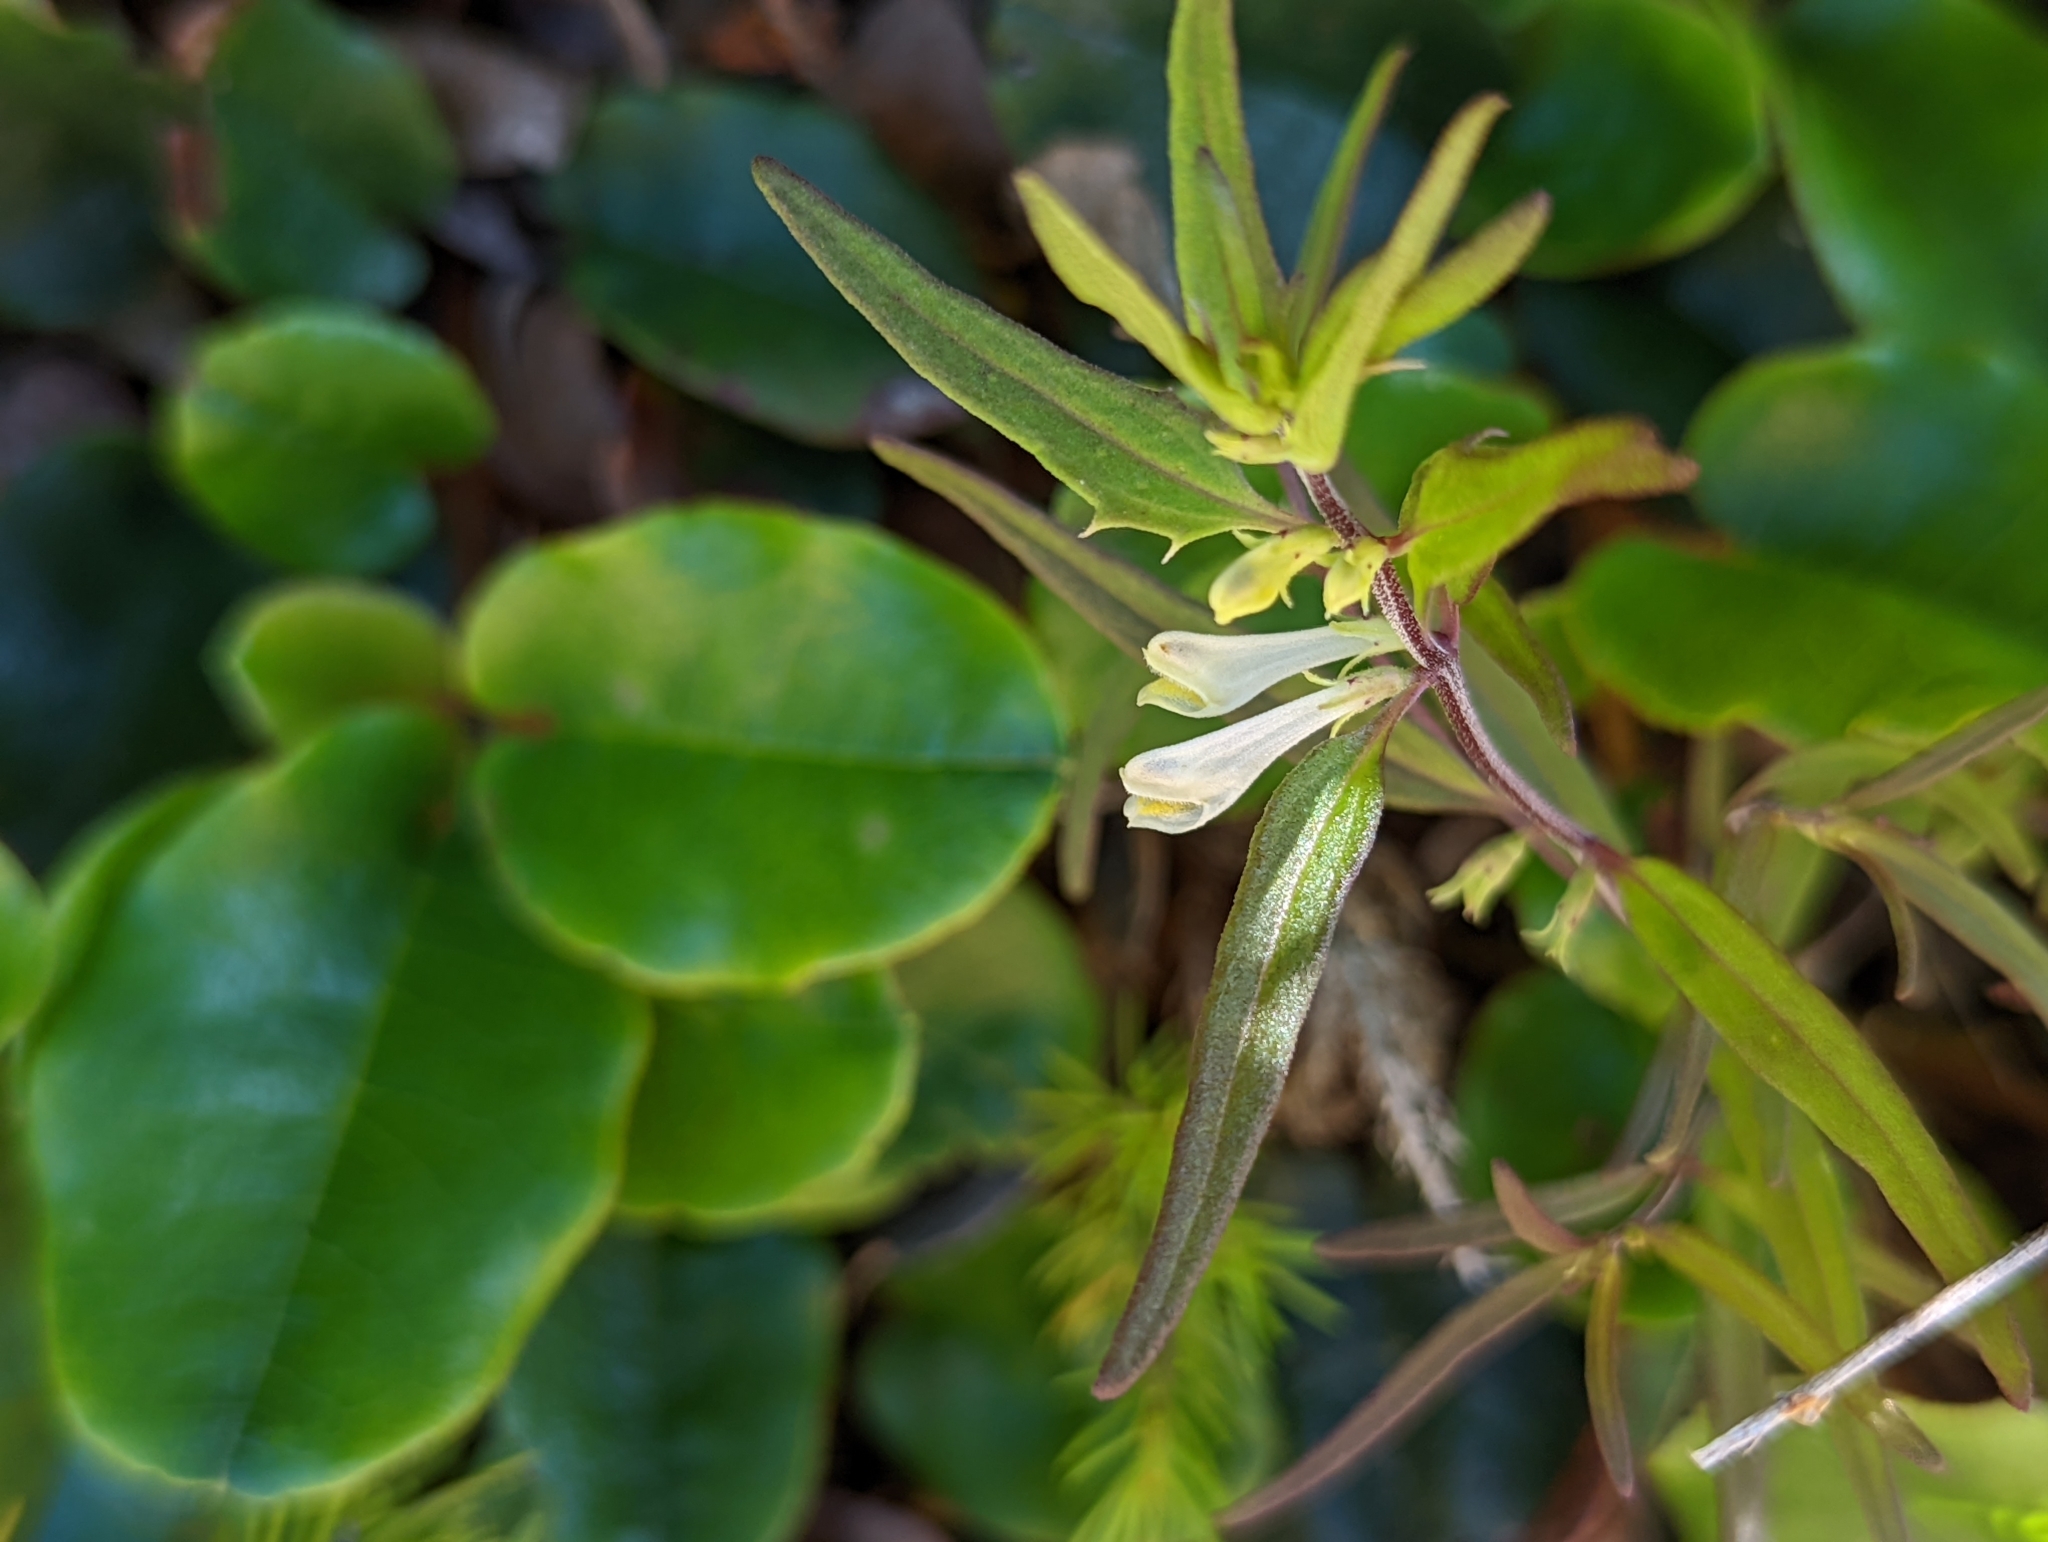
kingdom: Plantae
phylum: Tracheophyta
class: Magnoliopsida
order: Lamiales
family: Orobanchaceae
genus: Melampyrum
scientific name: Melampyrum lineare
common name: American cow-wheat
